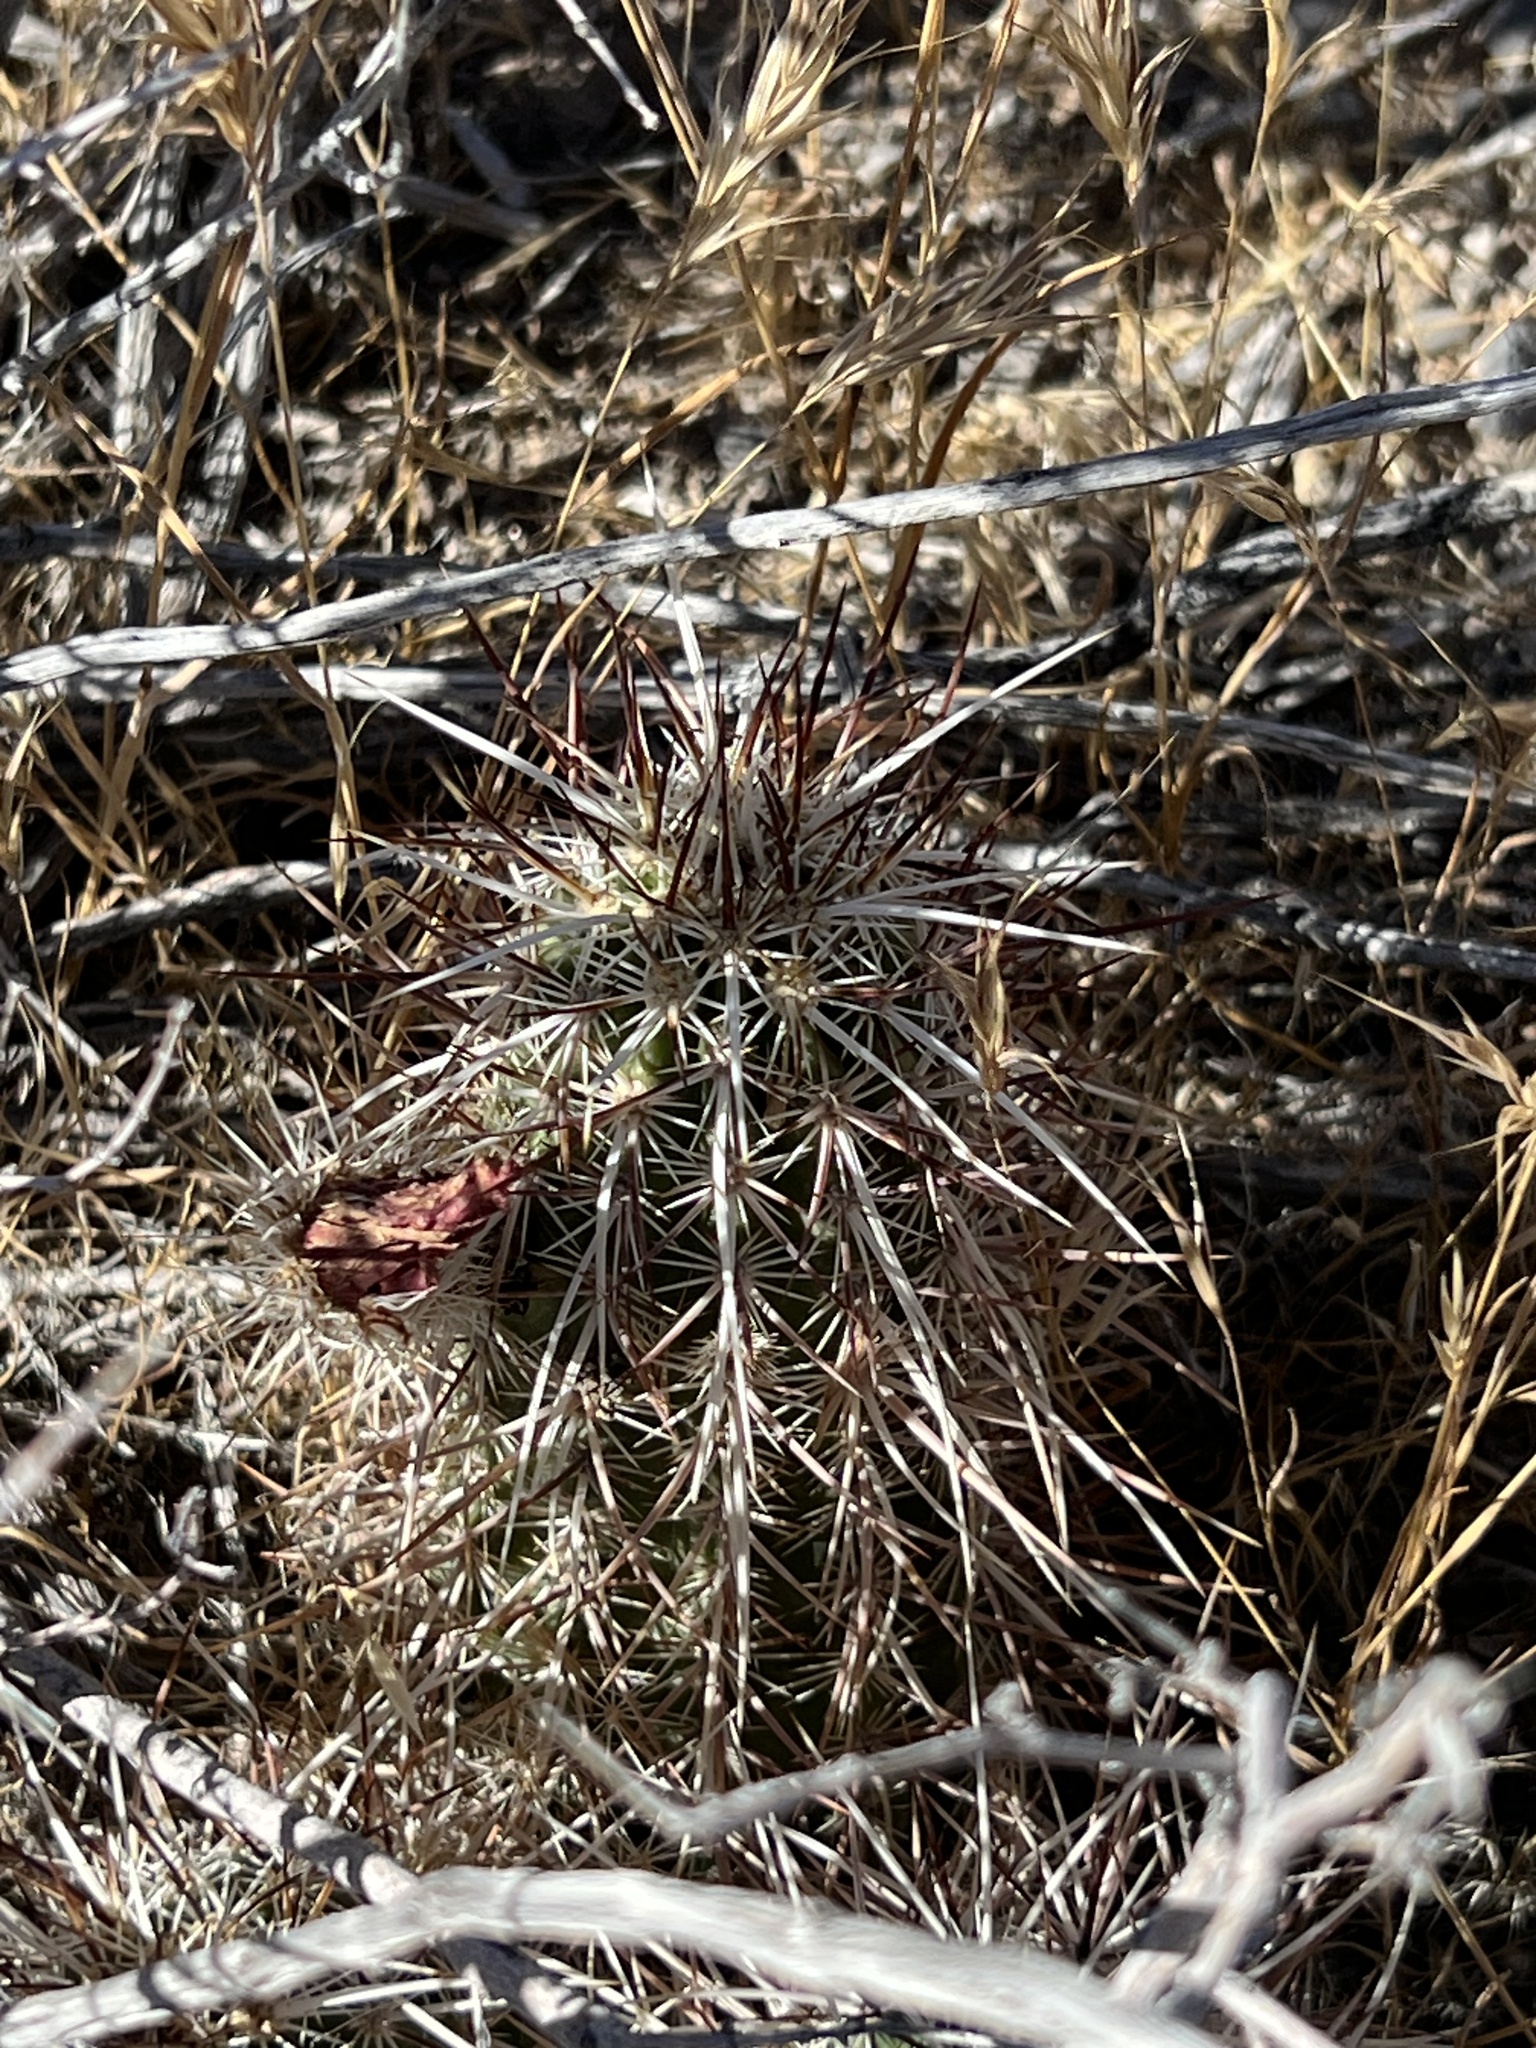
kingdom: Plantae
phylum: Tracheophyta
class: Magnoliopsida
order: Caryophyllales
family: Cactaceae
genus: Echinocereus
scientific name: Echinocereus engelmannii
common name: Engelmann's hedgehog cactus
